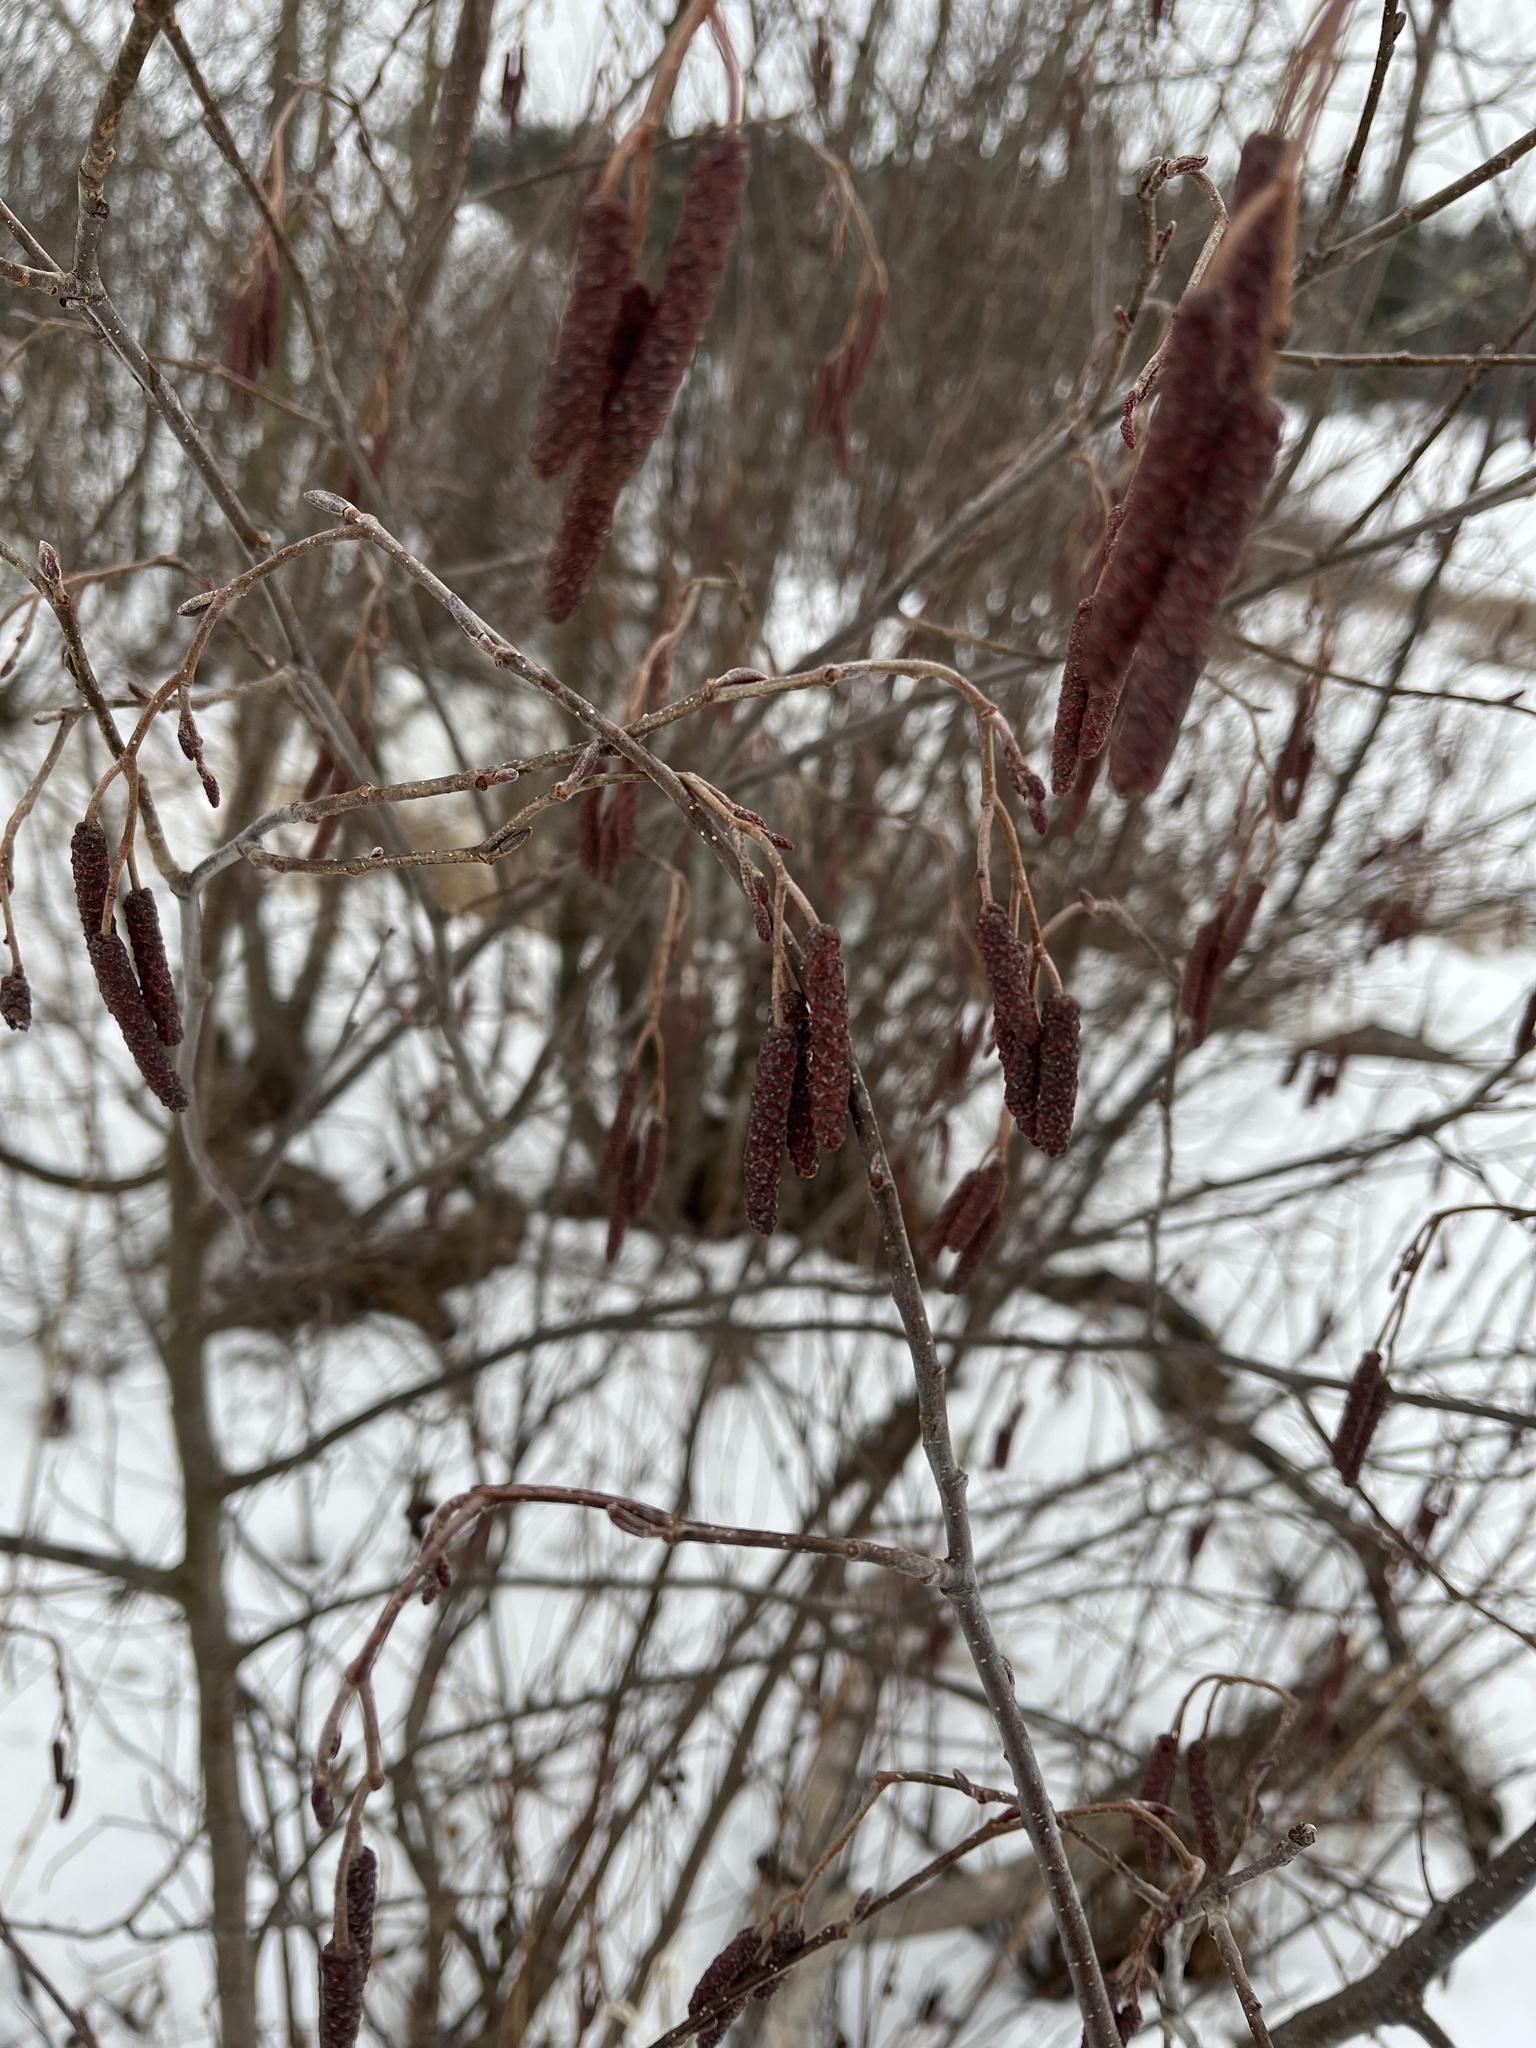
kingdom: Plantae
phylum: Tracheophyta
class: Magnoliopsida
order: Fagales
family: Betulaceae
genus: Alnus
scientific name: Alnus incana
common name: Grey alder
